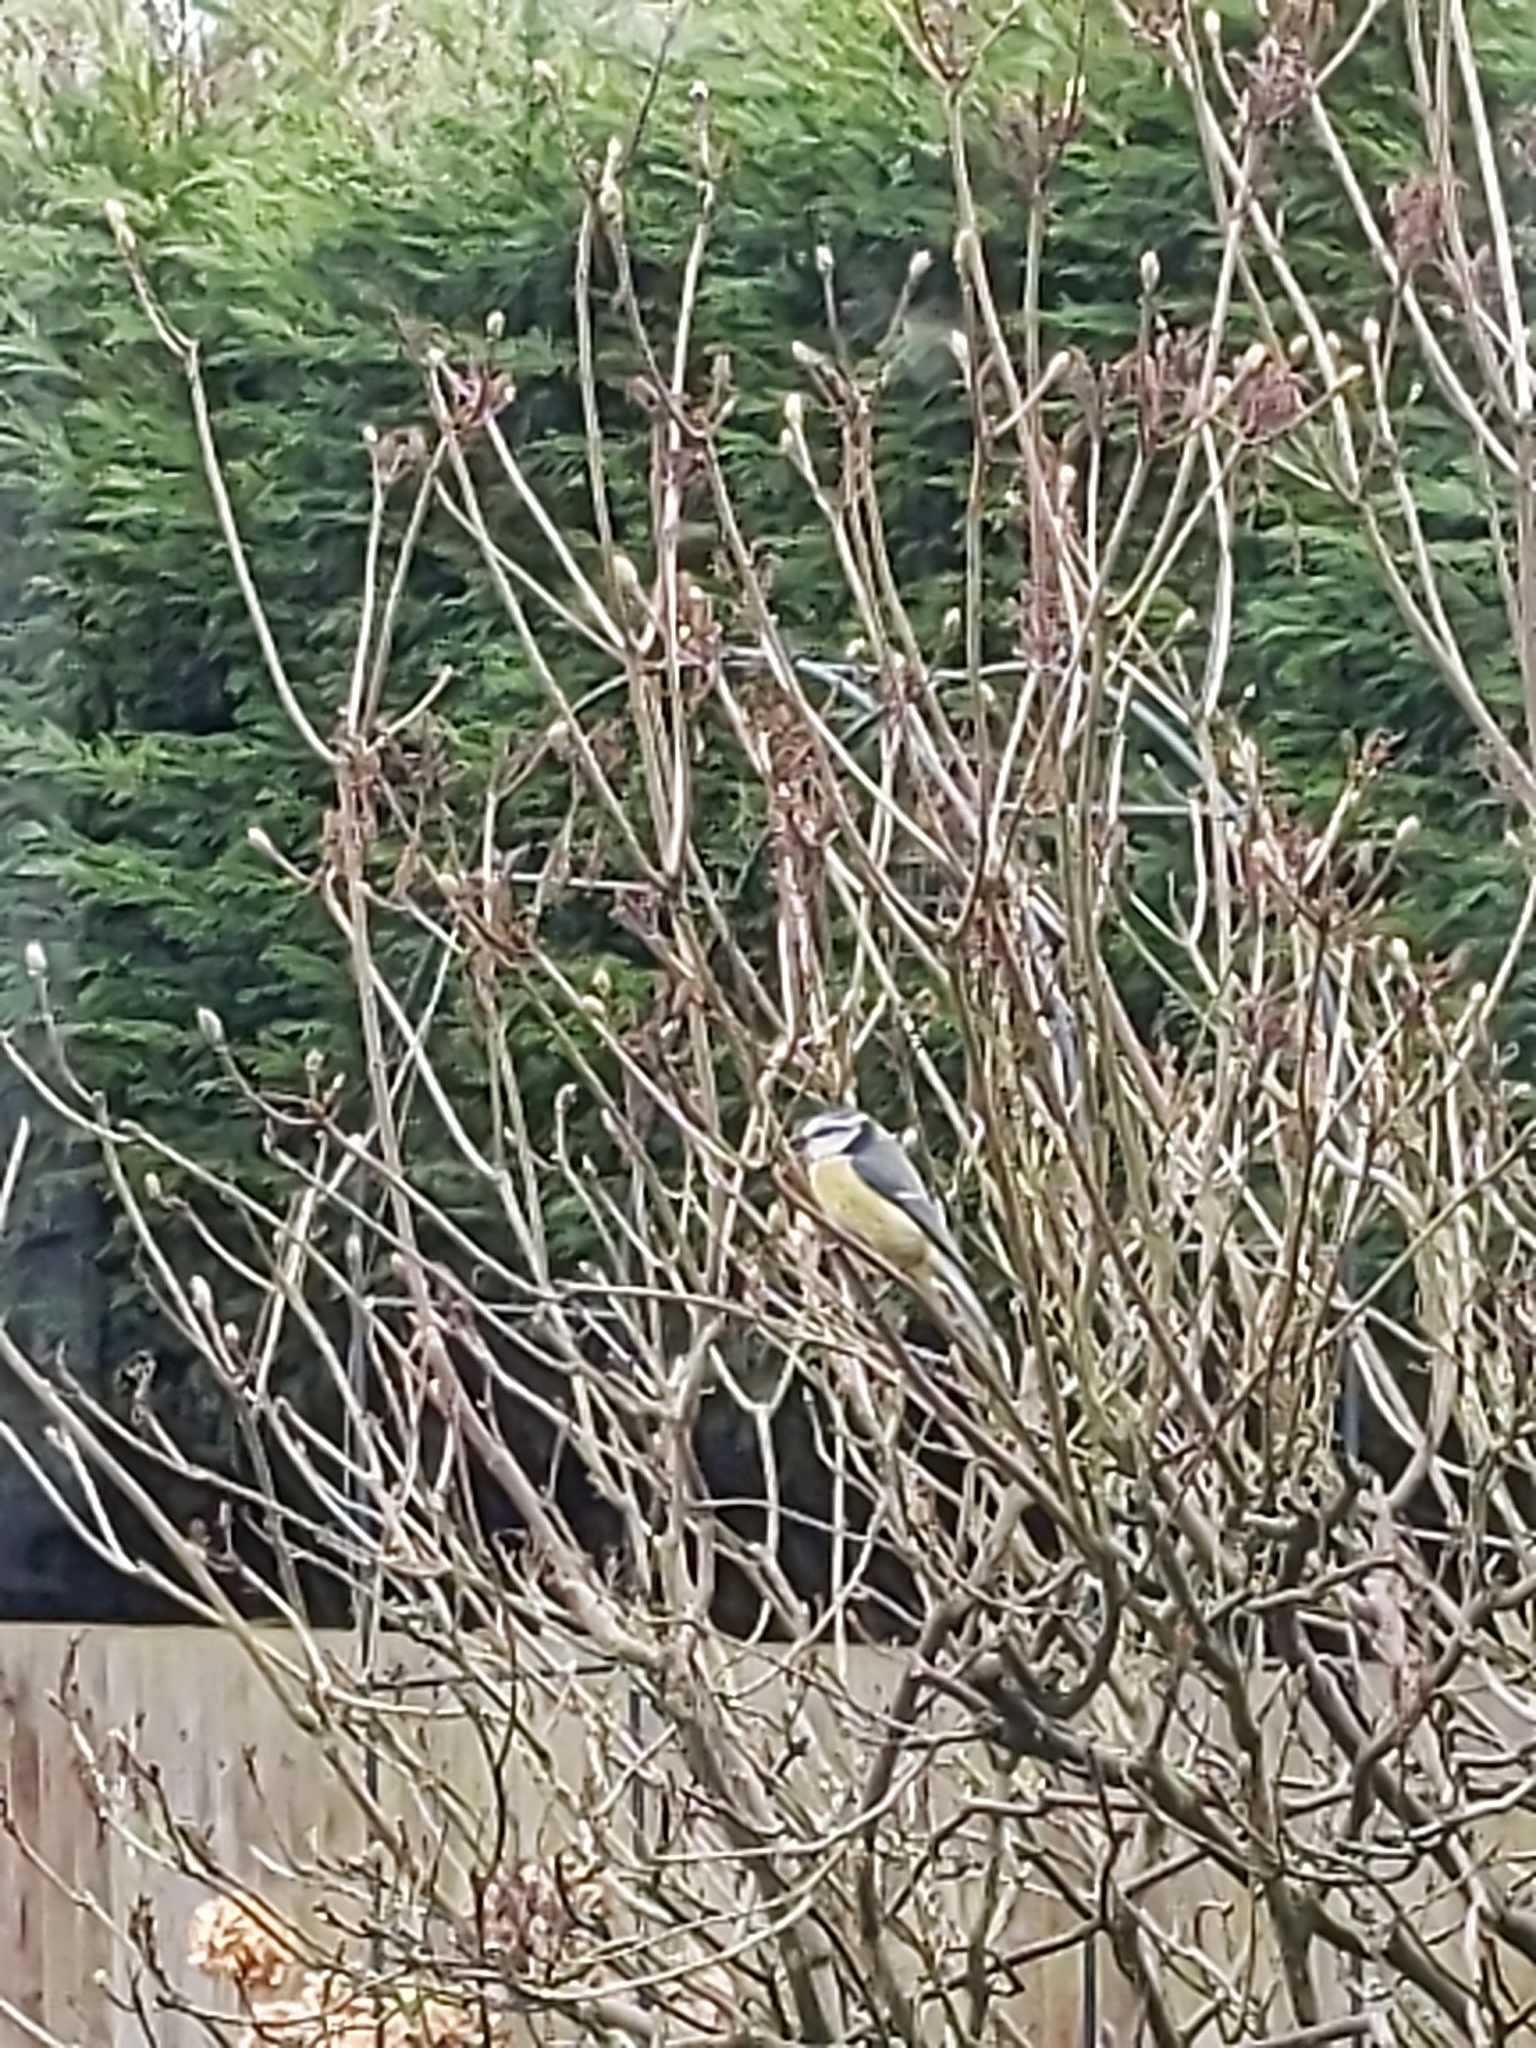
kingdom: Animalia
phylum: Chordata
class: Aves
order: Passeriformes
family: Paridae
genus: Cyanistes
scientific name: Cyanistes caeruleus
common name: Eurasian blue tit
